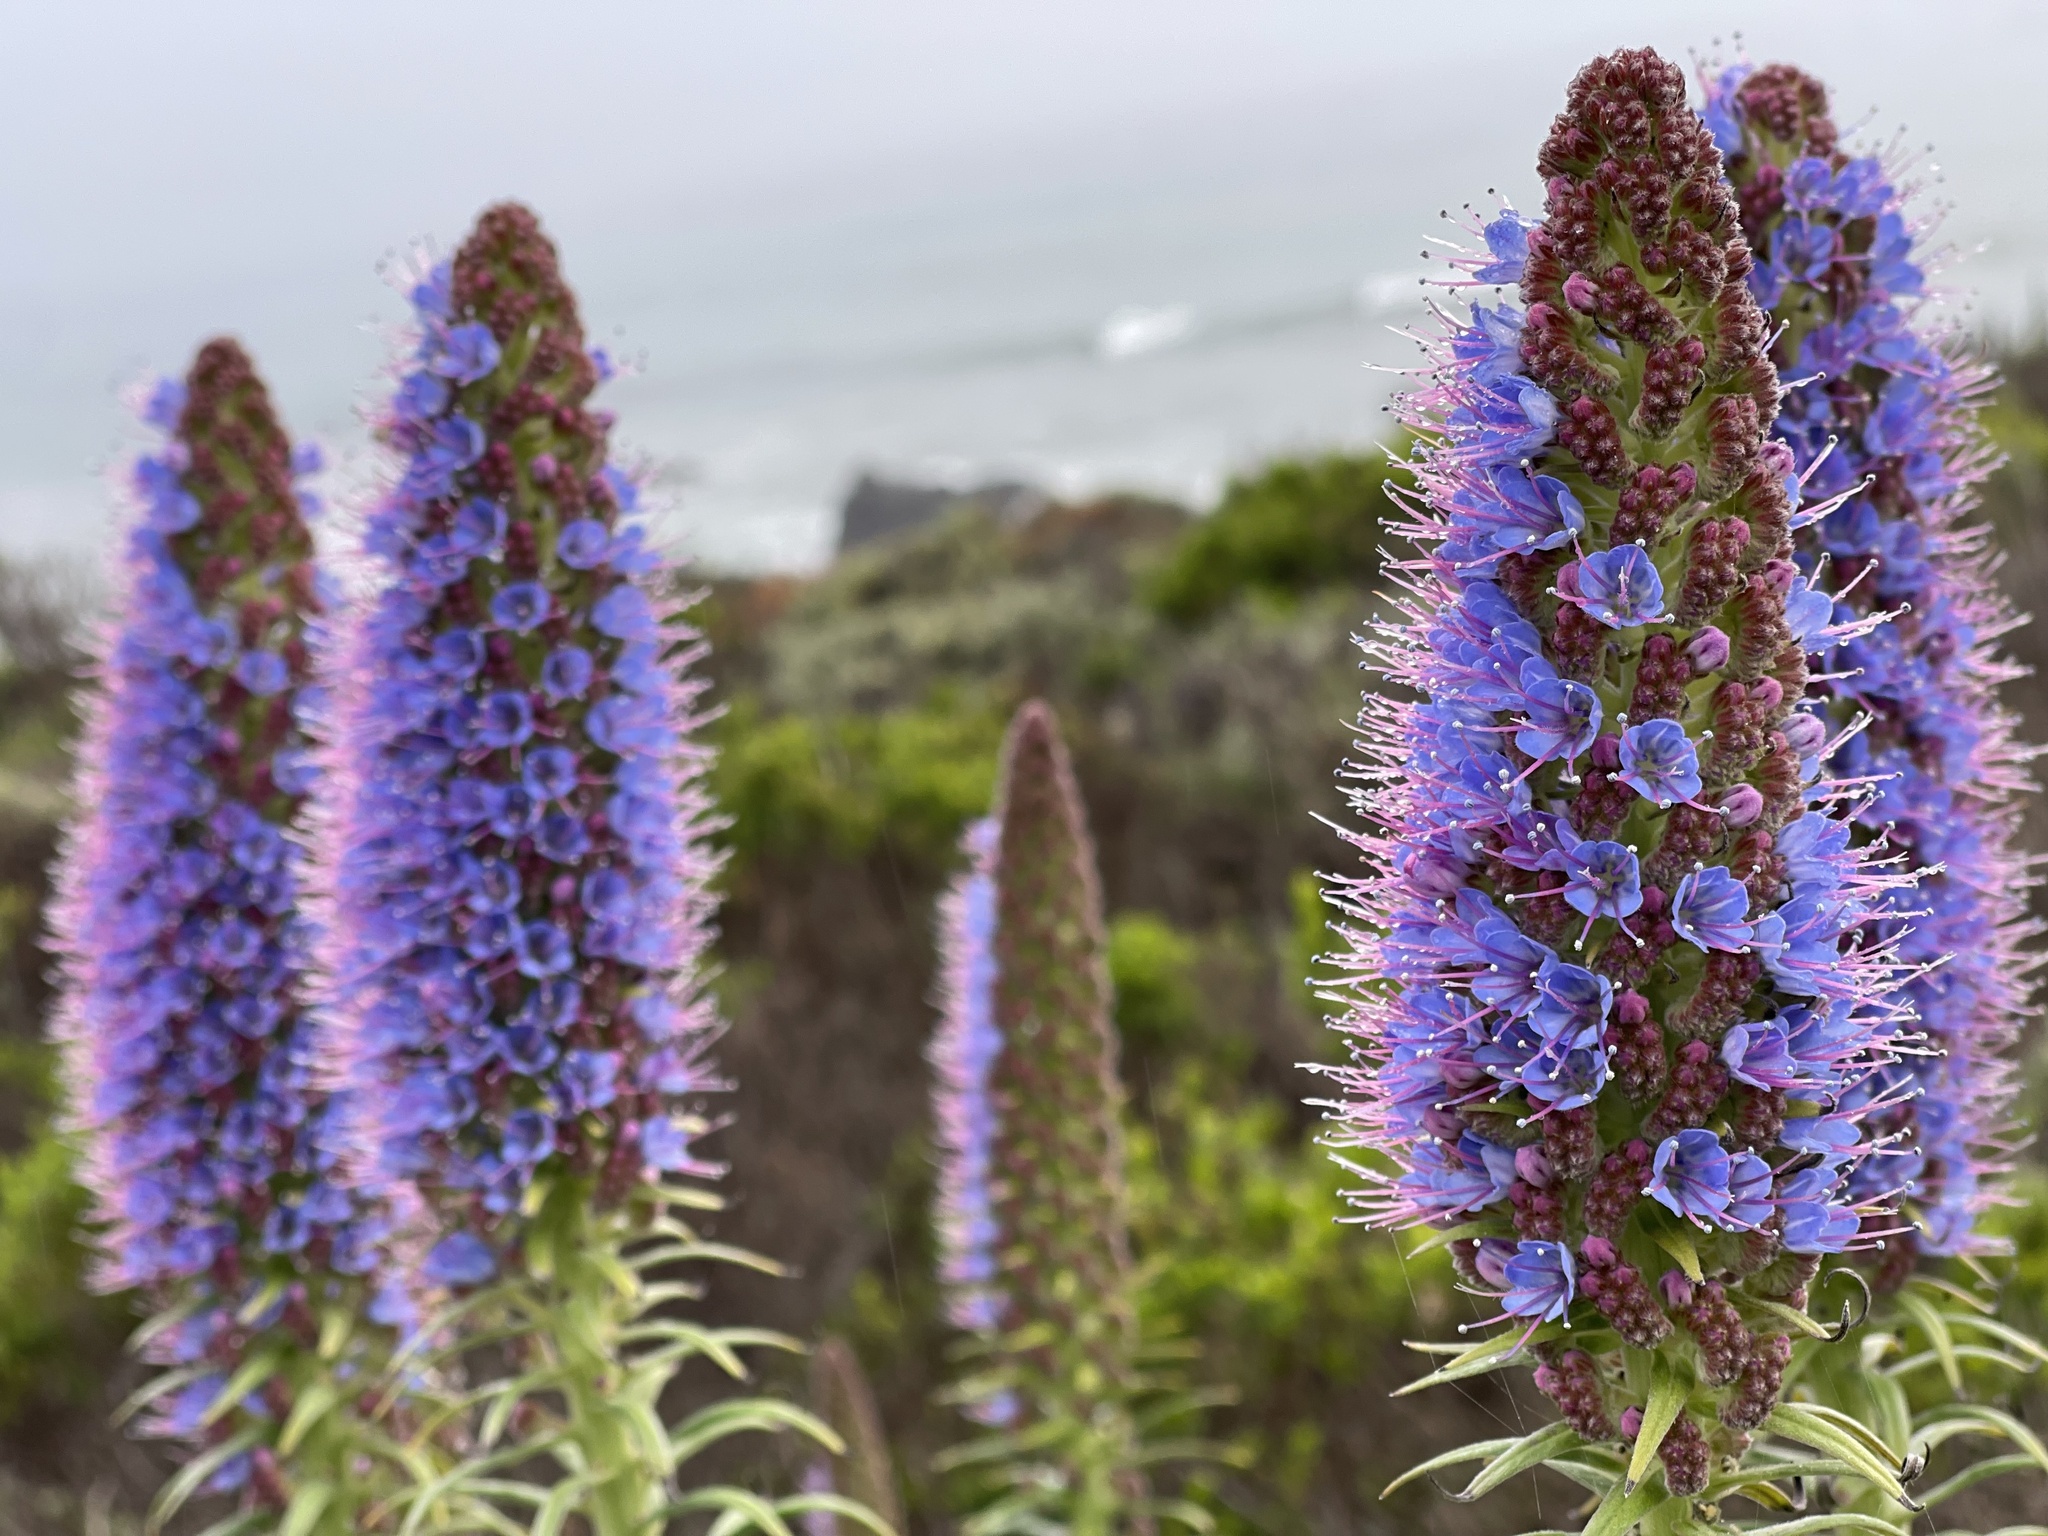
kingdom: Plantae
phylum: Tracheophyta
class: Magnoliopsida
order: Boraginales
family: Boraginaceae
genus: Echium
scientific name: Echium candicans
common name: Pride of madeira
